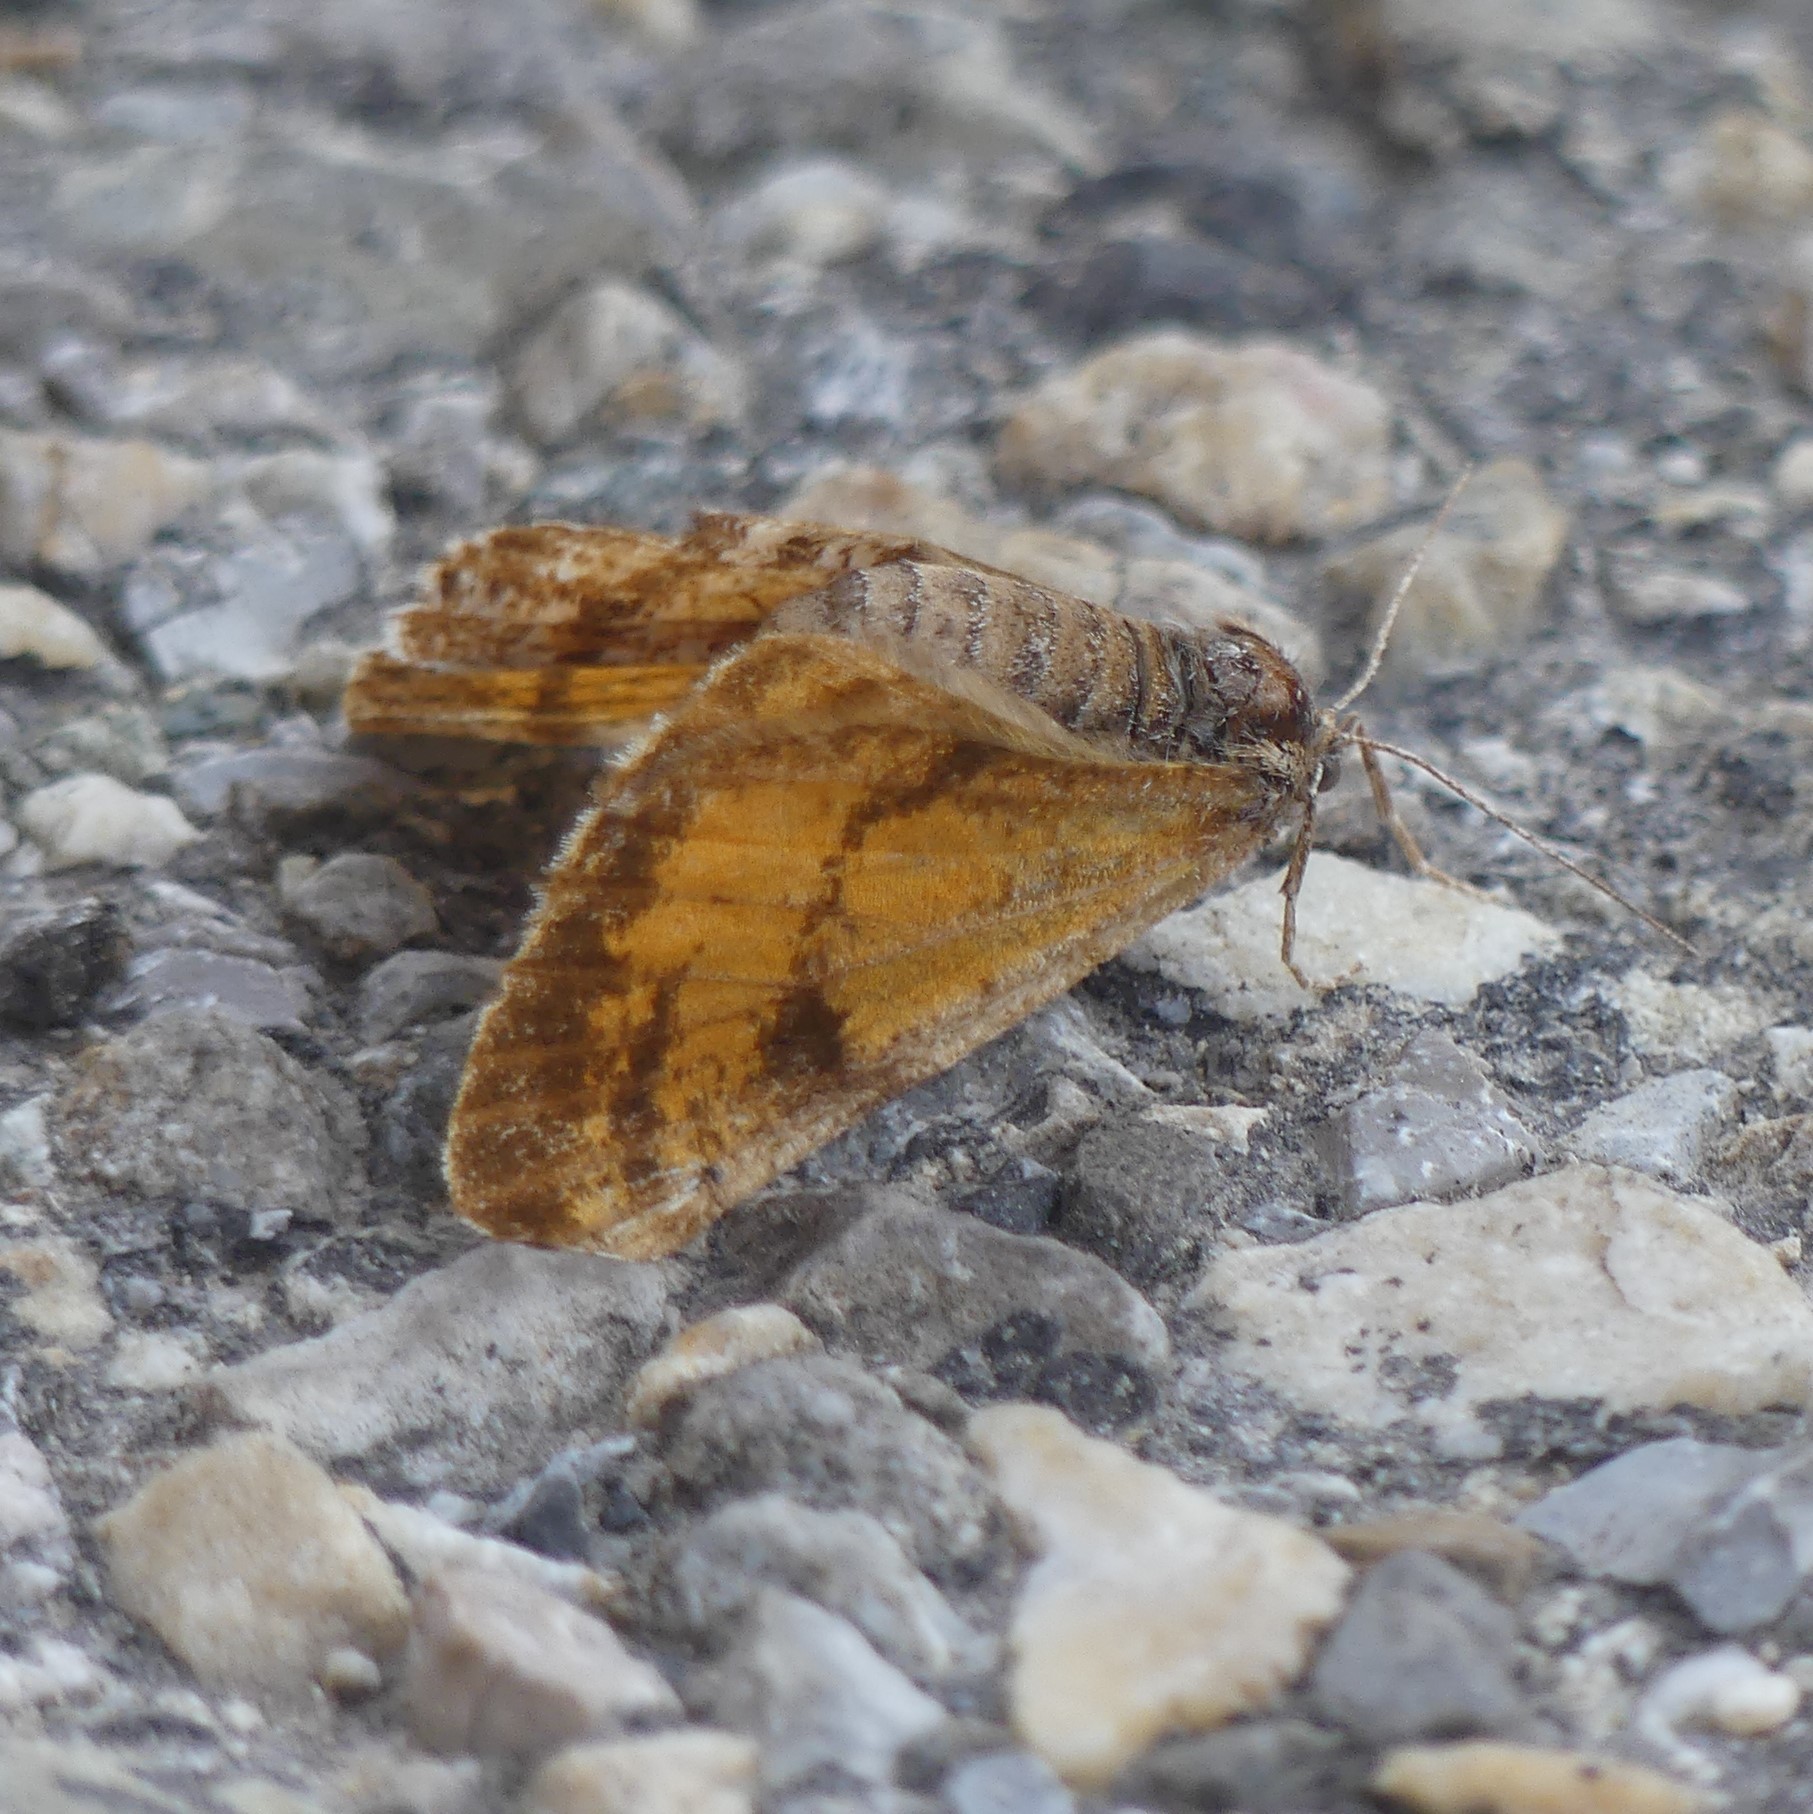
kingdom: Animalia
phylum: Arthropoda
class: Insecta
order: Lepidoptera
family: Geometridae
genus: Bupalus
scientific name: Bupalus piniaria
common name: Bordered white
